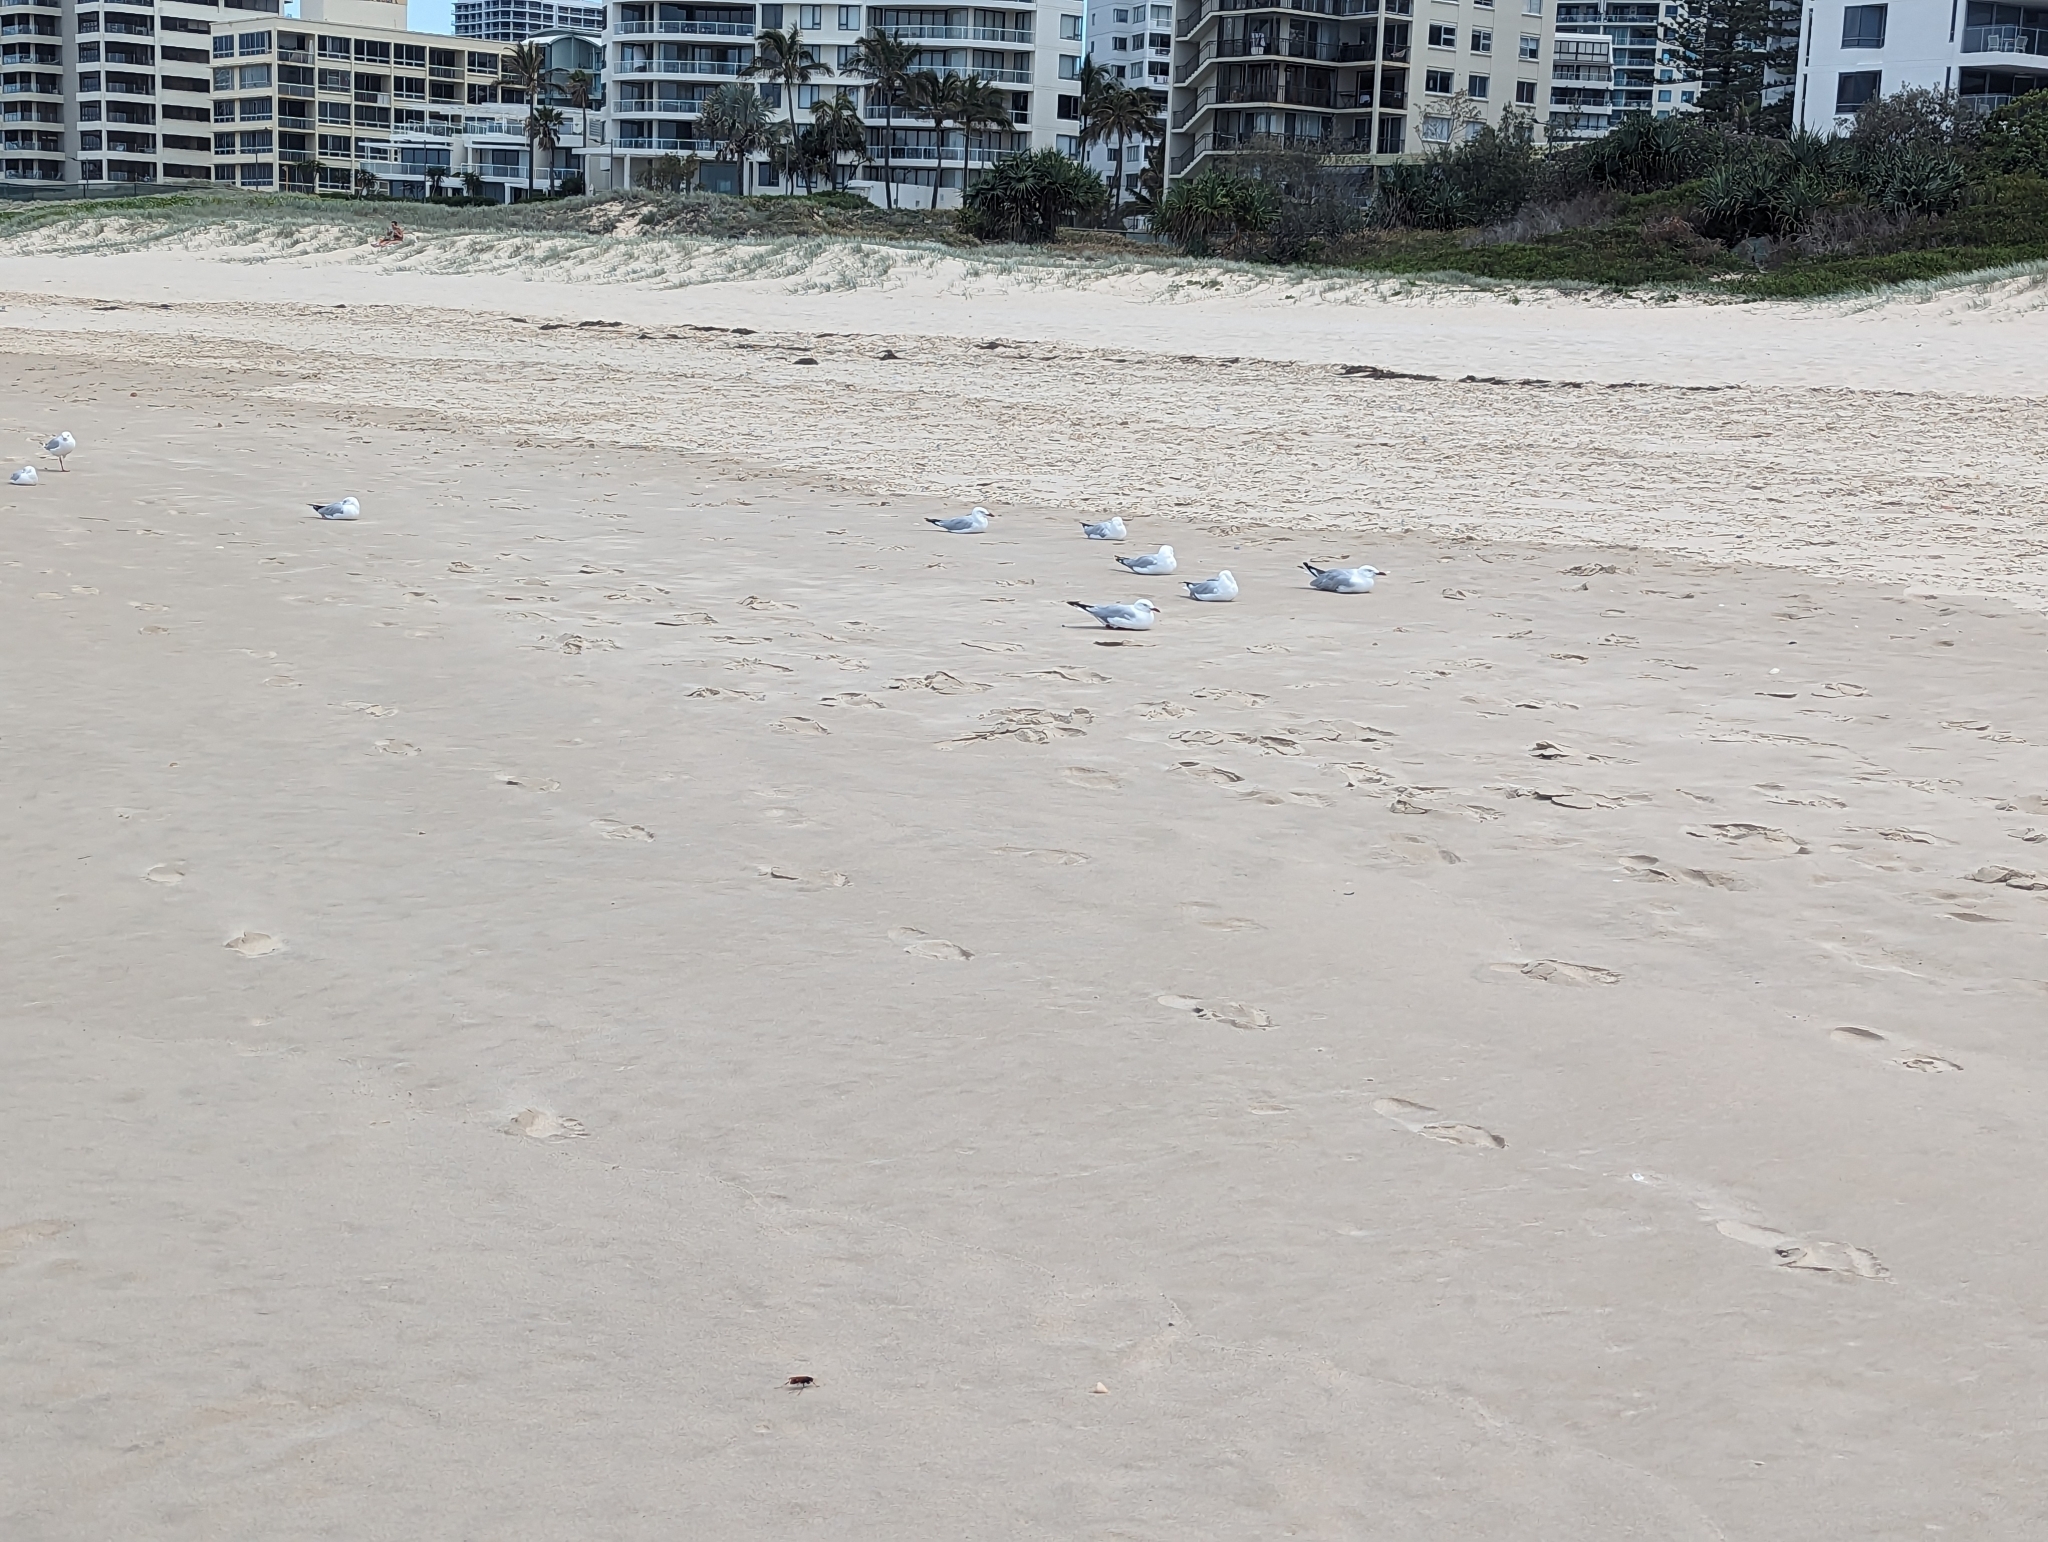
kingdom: Animalia
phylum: Chordata
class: Aves
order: Charadriiformes
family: Laridae
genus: Chroicocephalus
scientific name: Chroicocephalus novaehollandiae
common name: Silver gull
